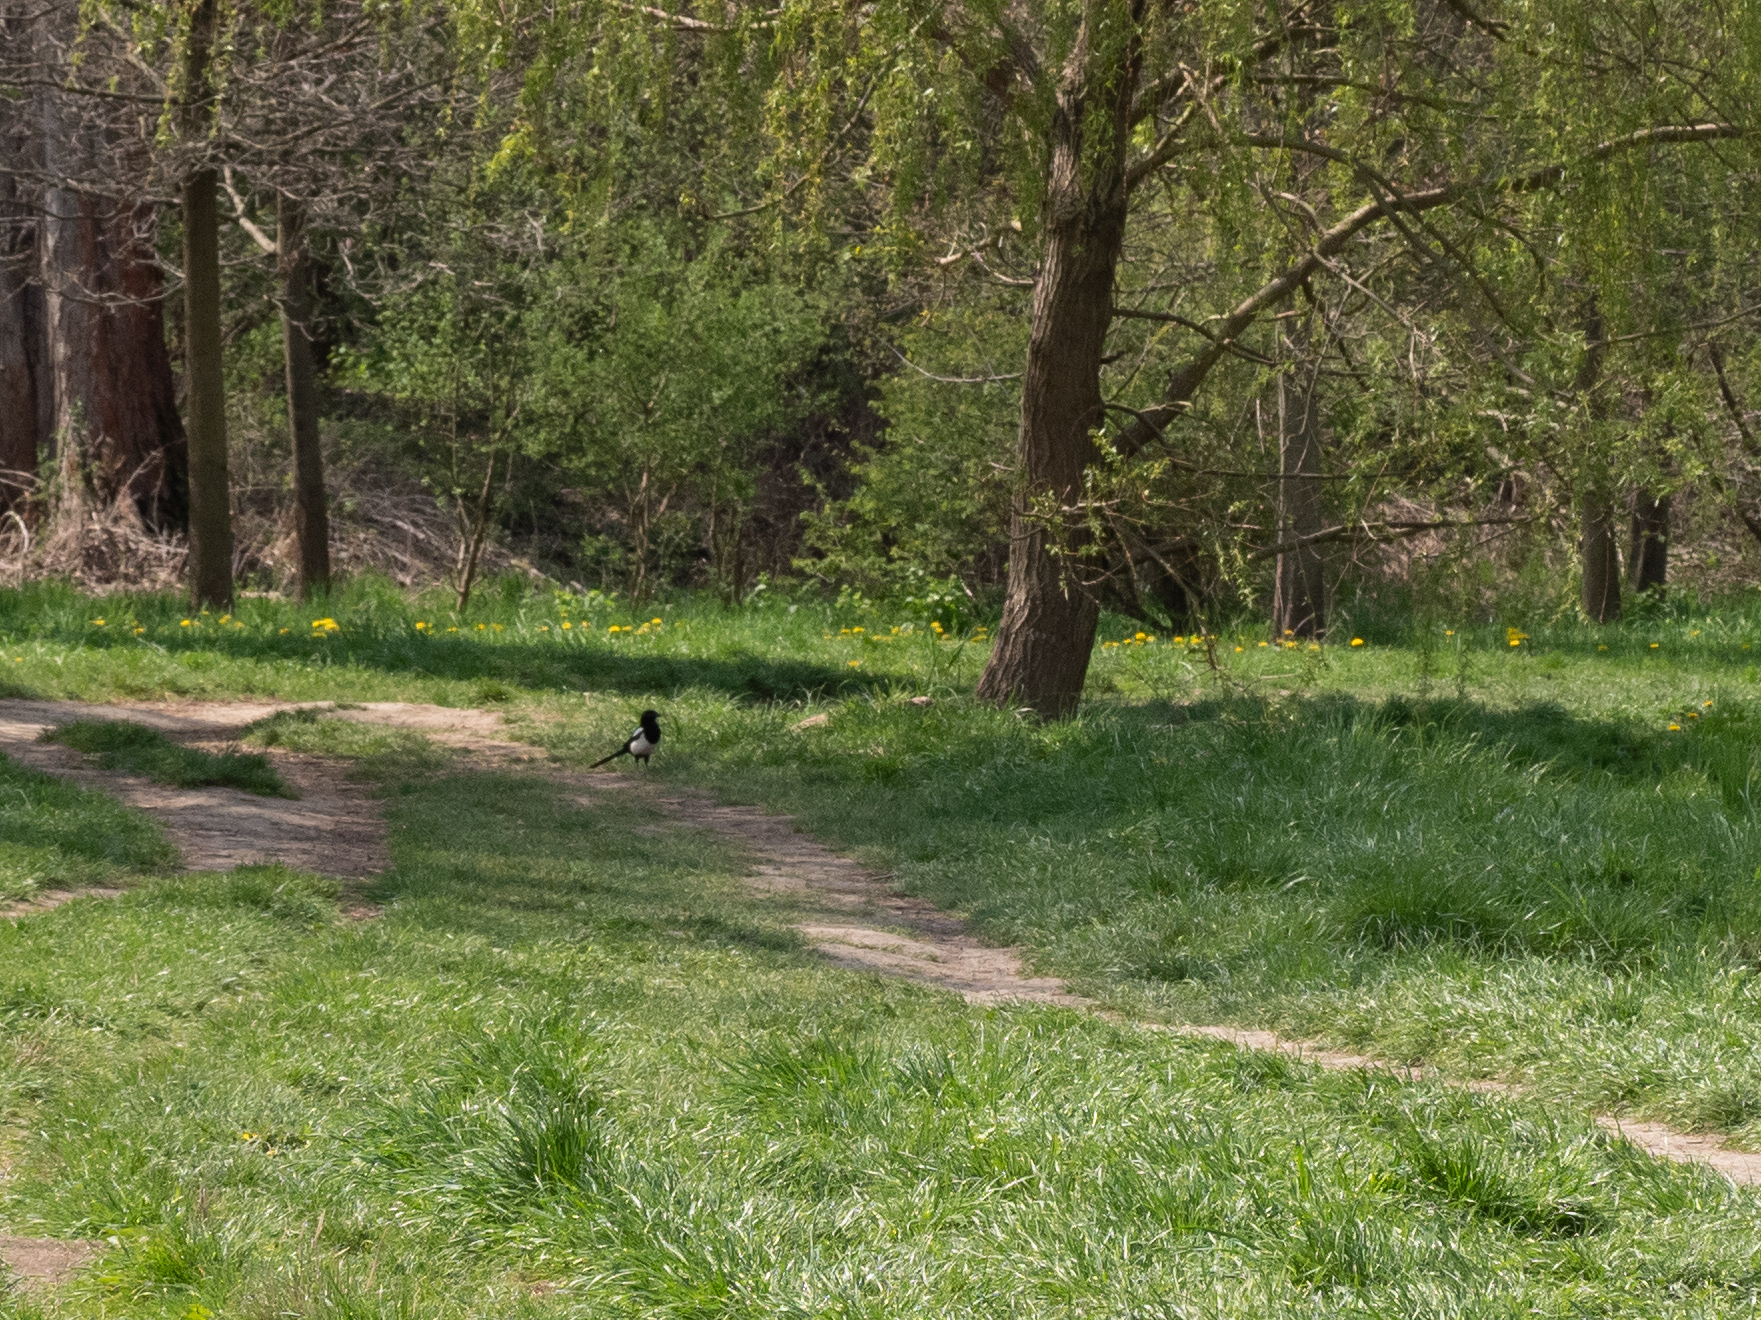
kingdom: Animalia
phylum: Chordata
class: Aves
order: Passeriformes
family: Corvidae
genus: Pica
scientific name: Pica pica
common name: Eurasian magpie
